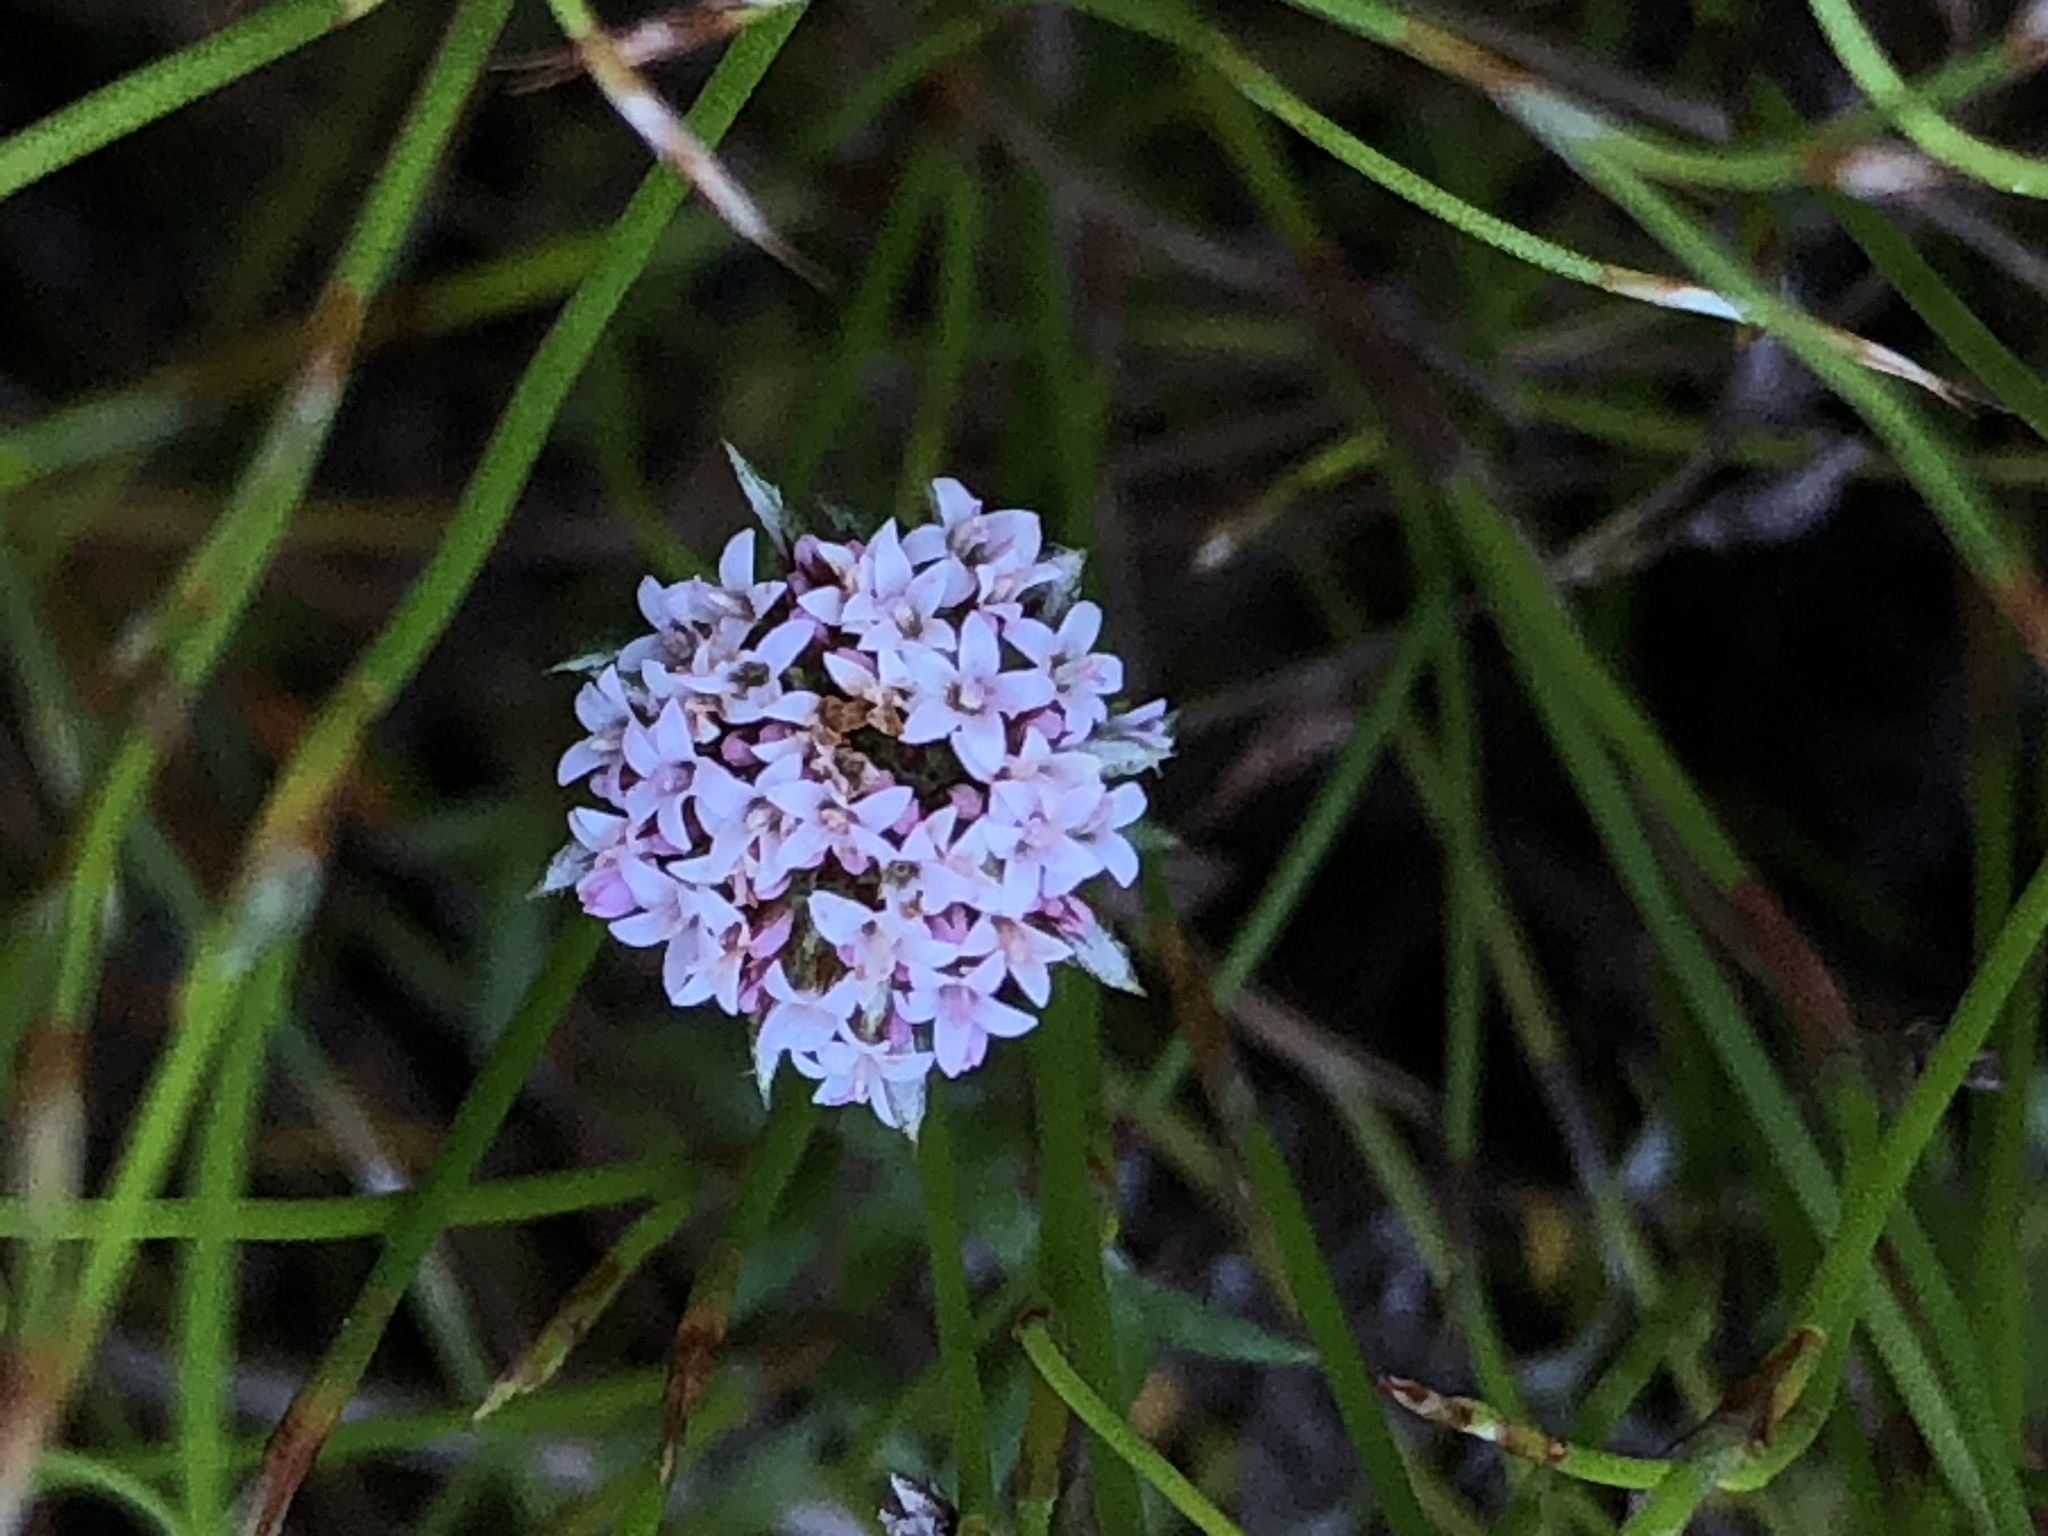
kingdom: Plantae
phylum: Tracheophyta
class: Magnoliopsida
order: Asterales
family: Asteraceae
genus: Stoebe
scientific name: Stoebe prostrata
